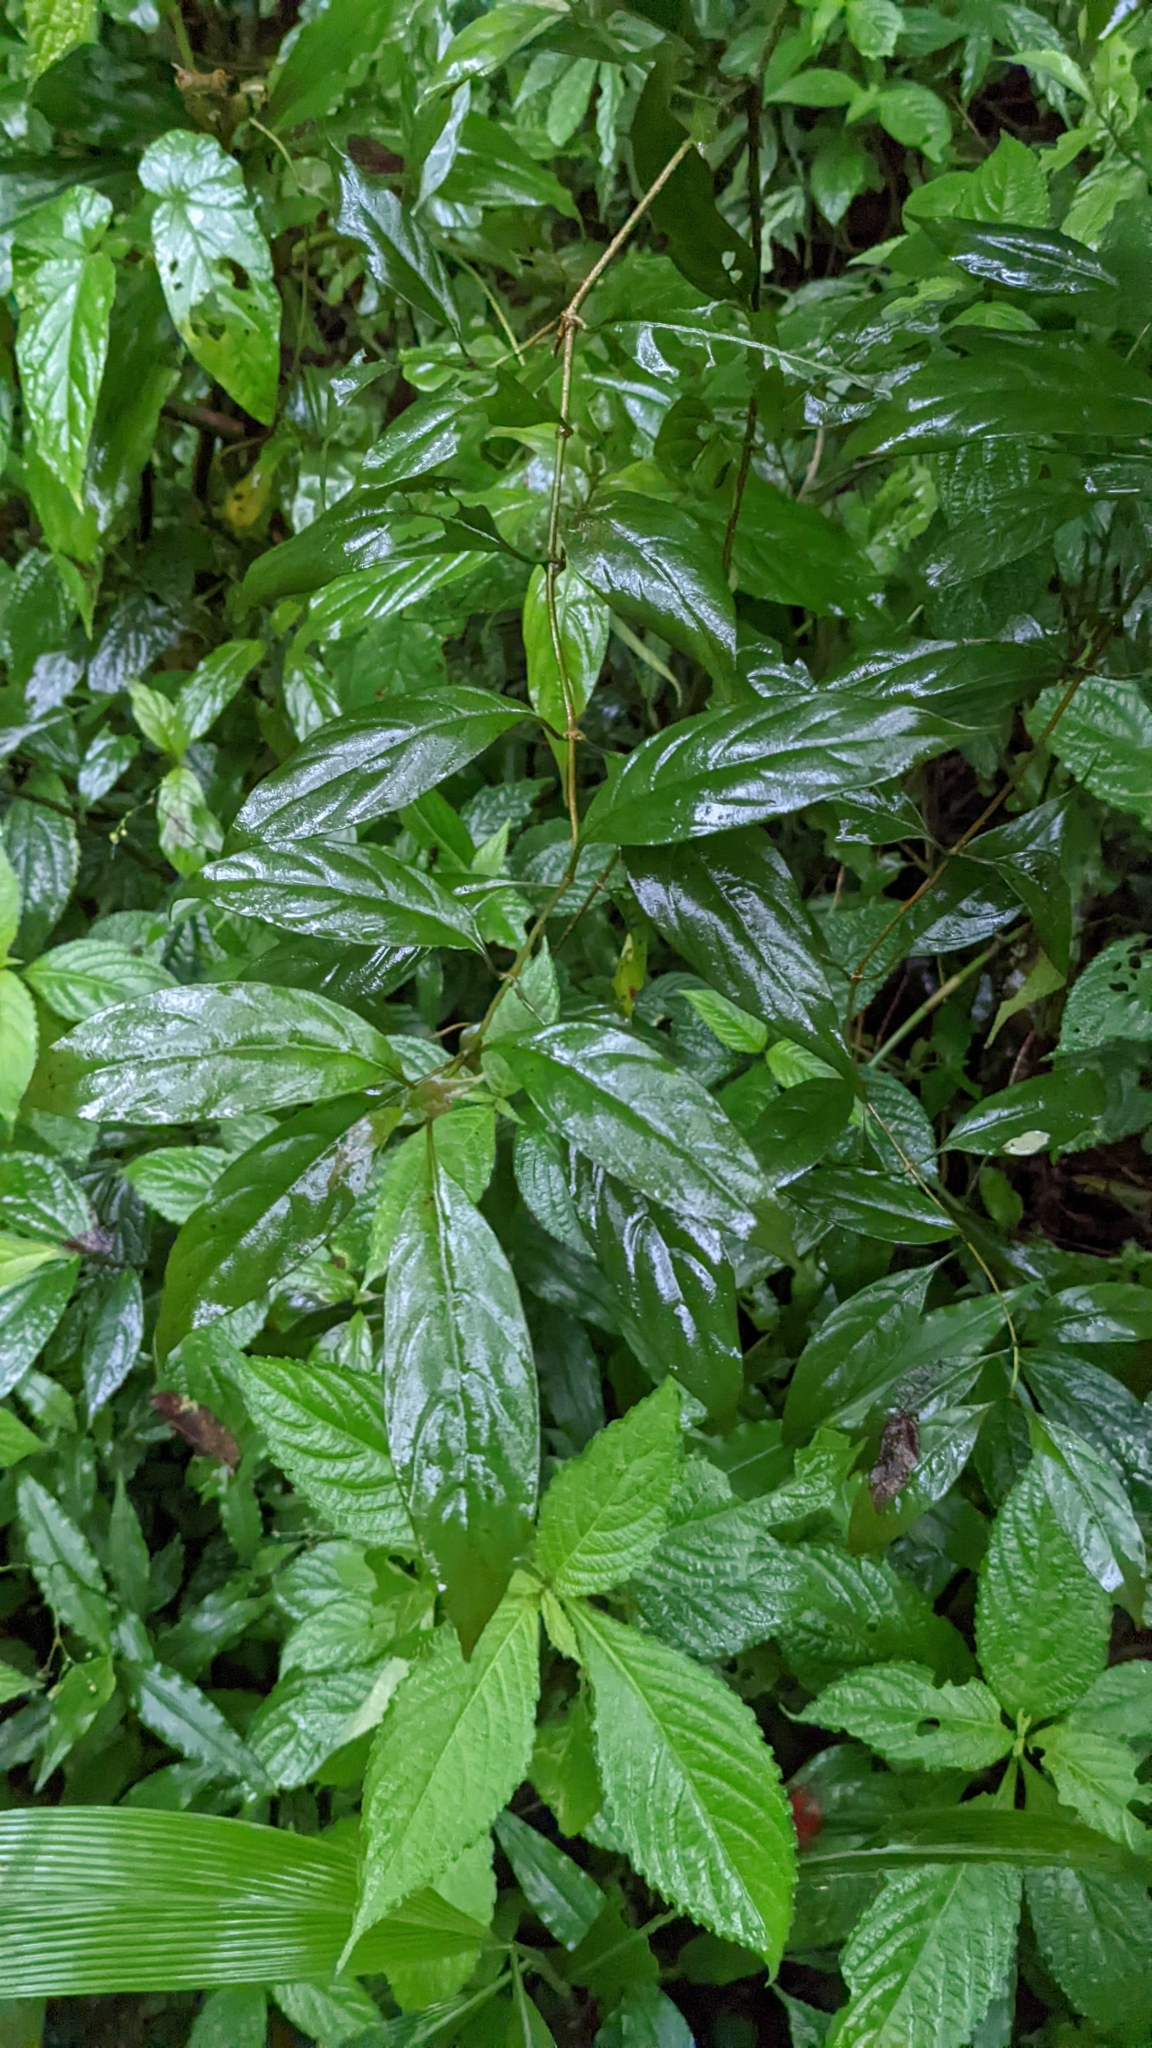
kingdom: Plantae
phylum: Tracheophyta
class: Magnoliopsida
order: Gentianales
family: Rubiaceae
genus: Mussaenda
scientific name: Mussaenda parviflora
